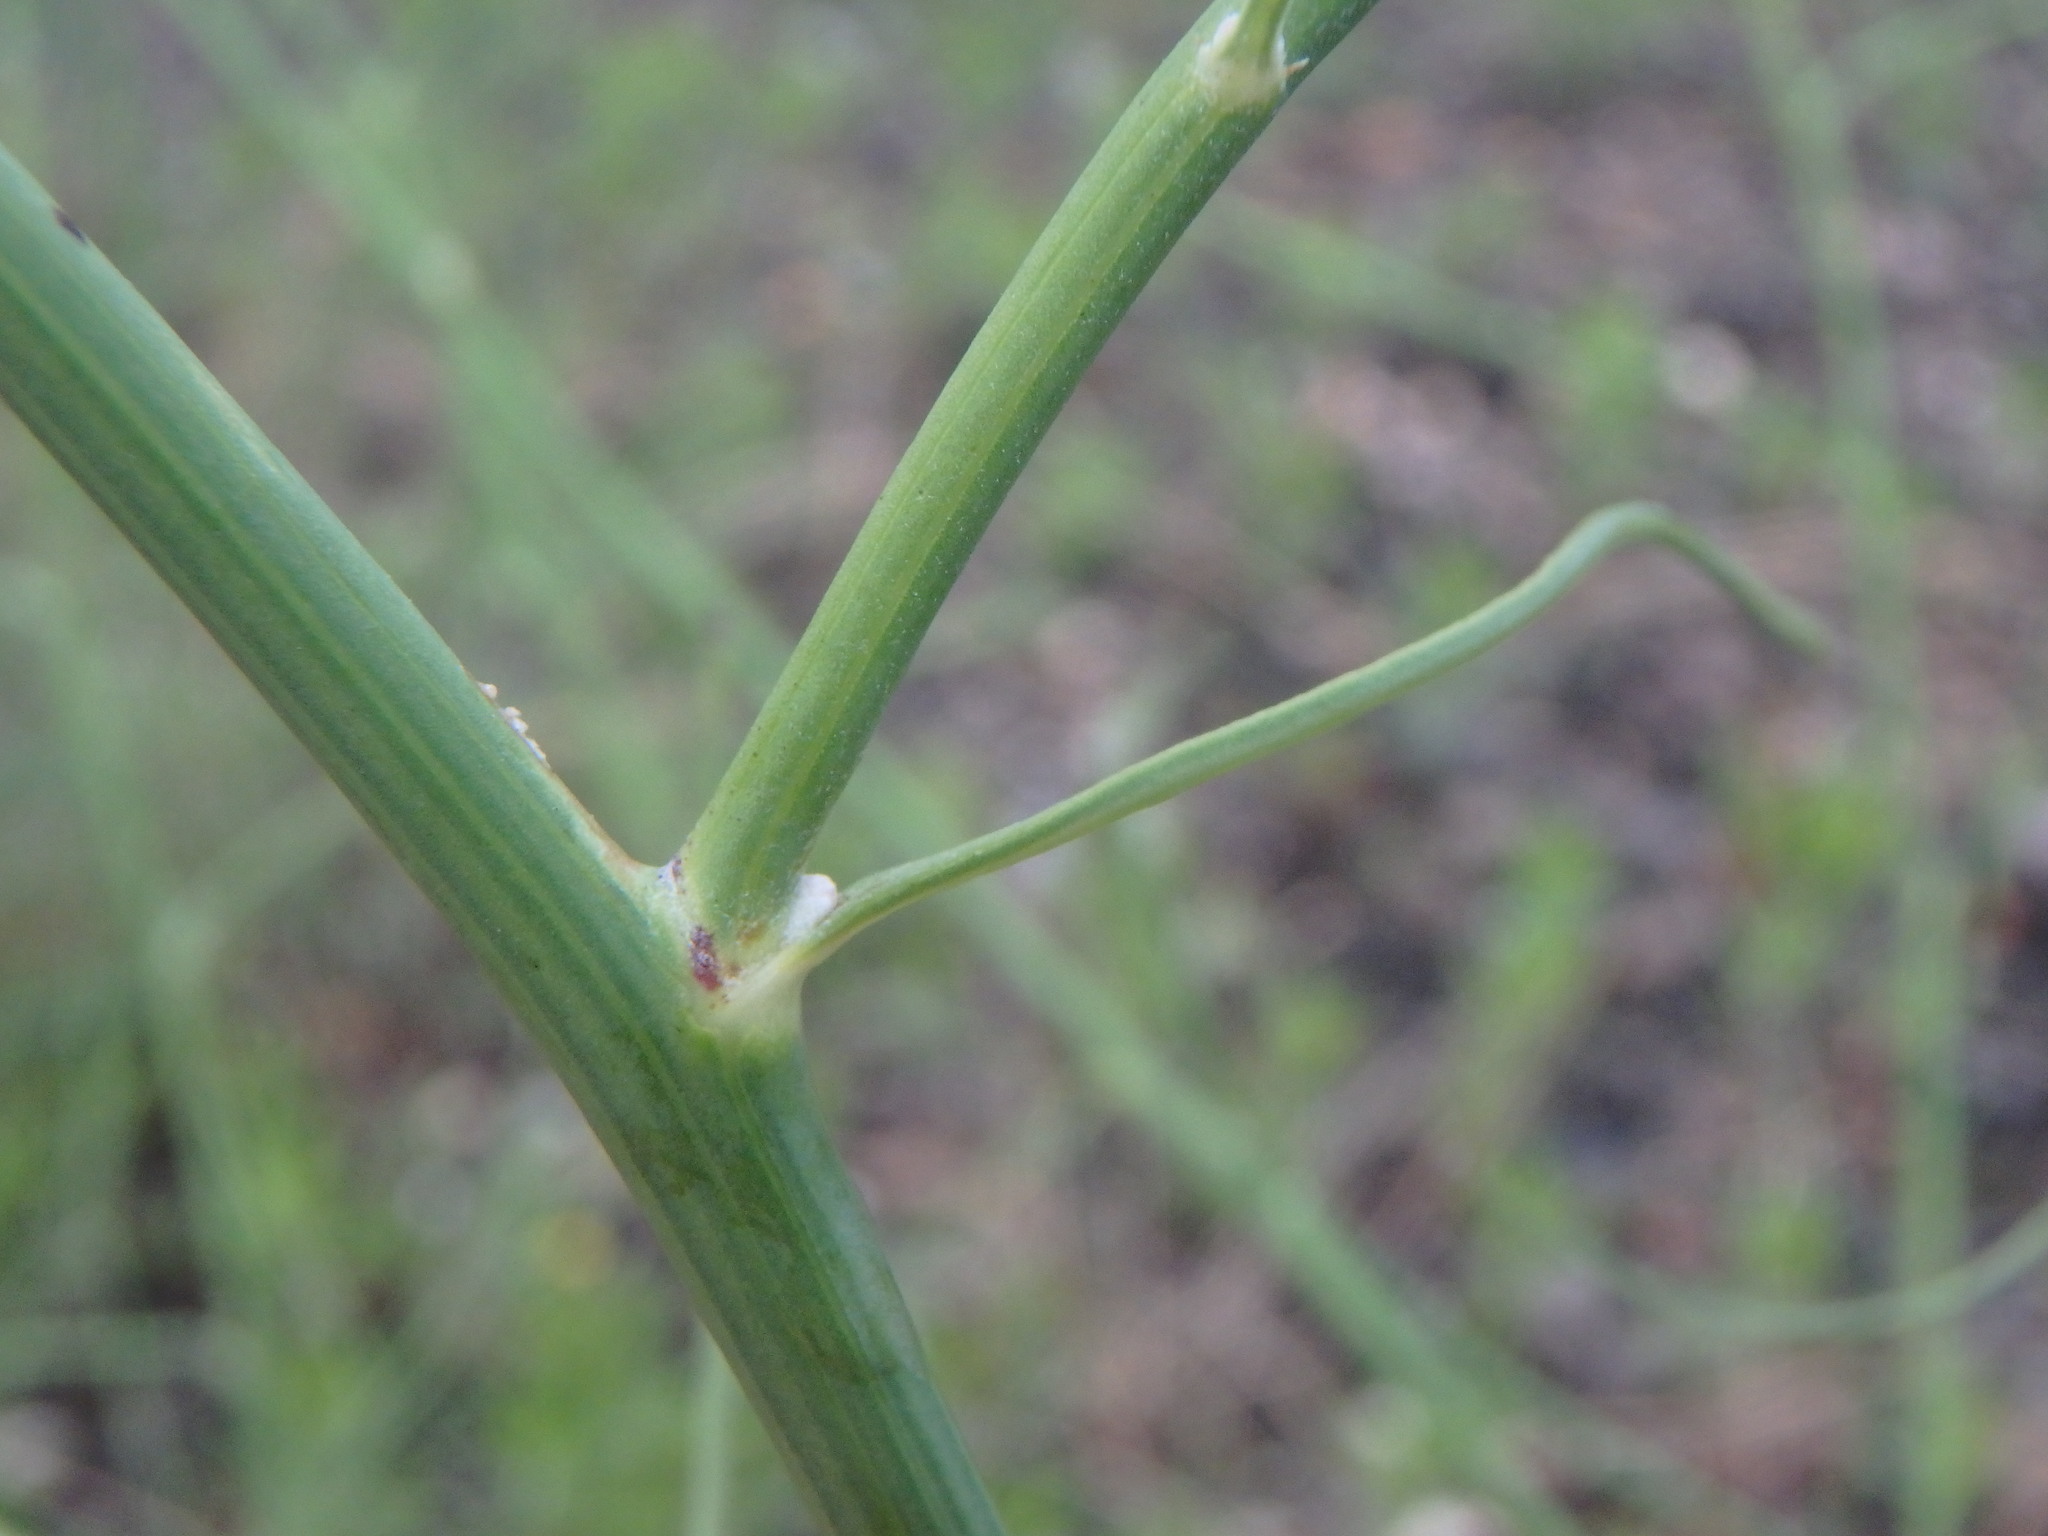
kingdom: Plantae
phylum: Tracheophyta
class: Magnoliopsida
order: Asterales
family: Asteraceae
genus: Chondrilla
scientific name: Chondrilla juncea
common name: Skeleton weed
